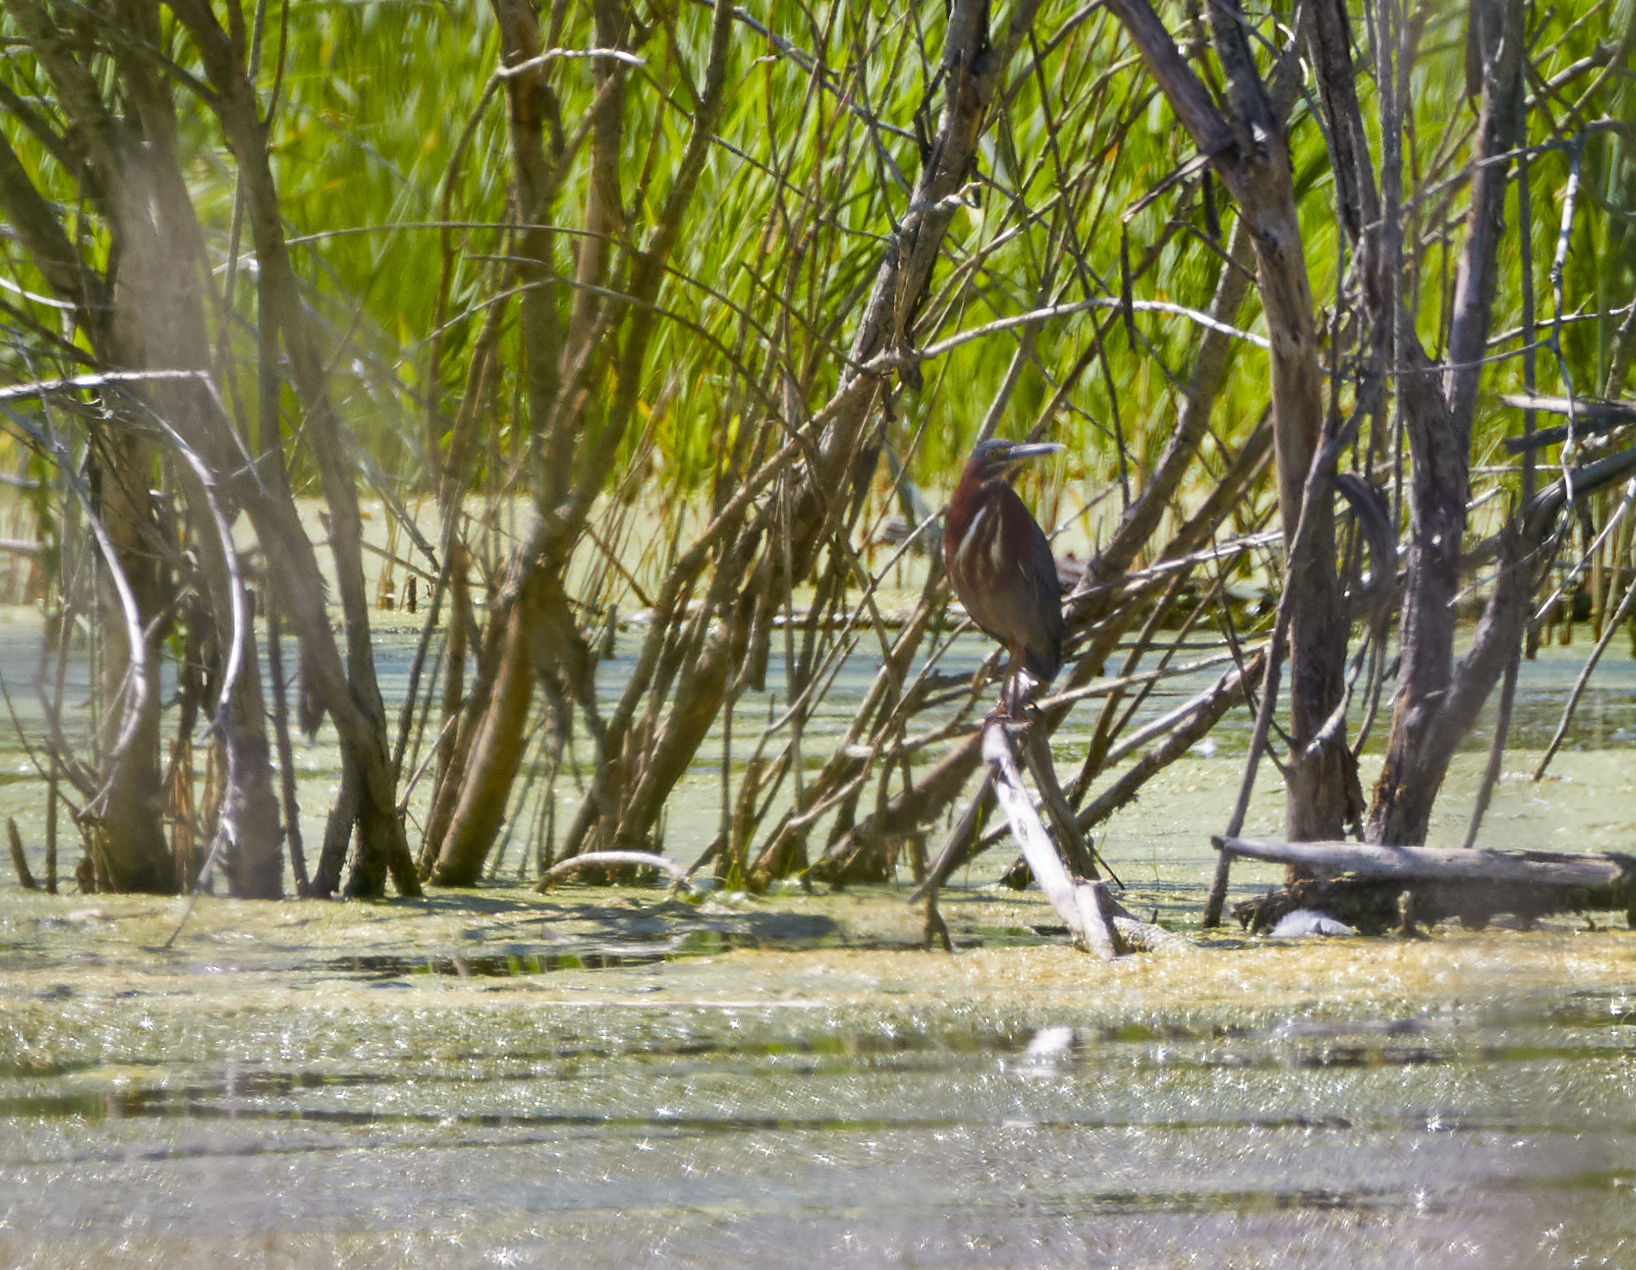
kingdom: Animalia
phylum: Chordata
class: Aves
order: Pelecaniformes
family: Ardeidae
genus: Butorides
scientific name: Butorides virescens
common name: Green heron
